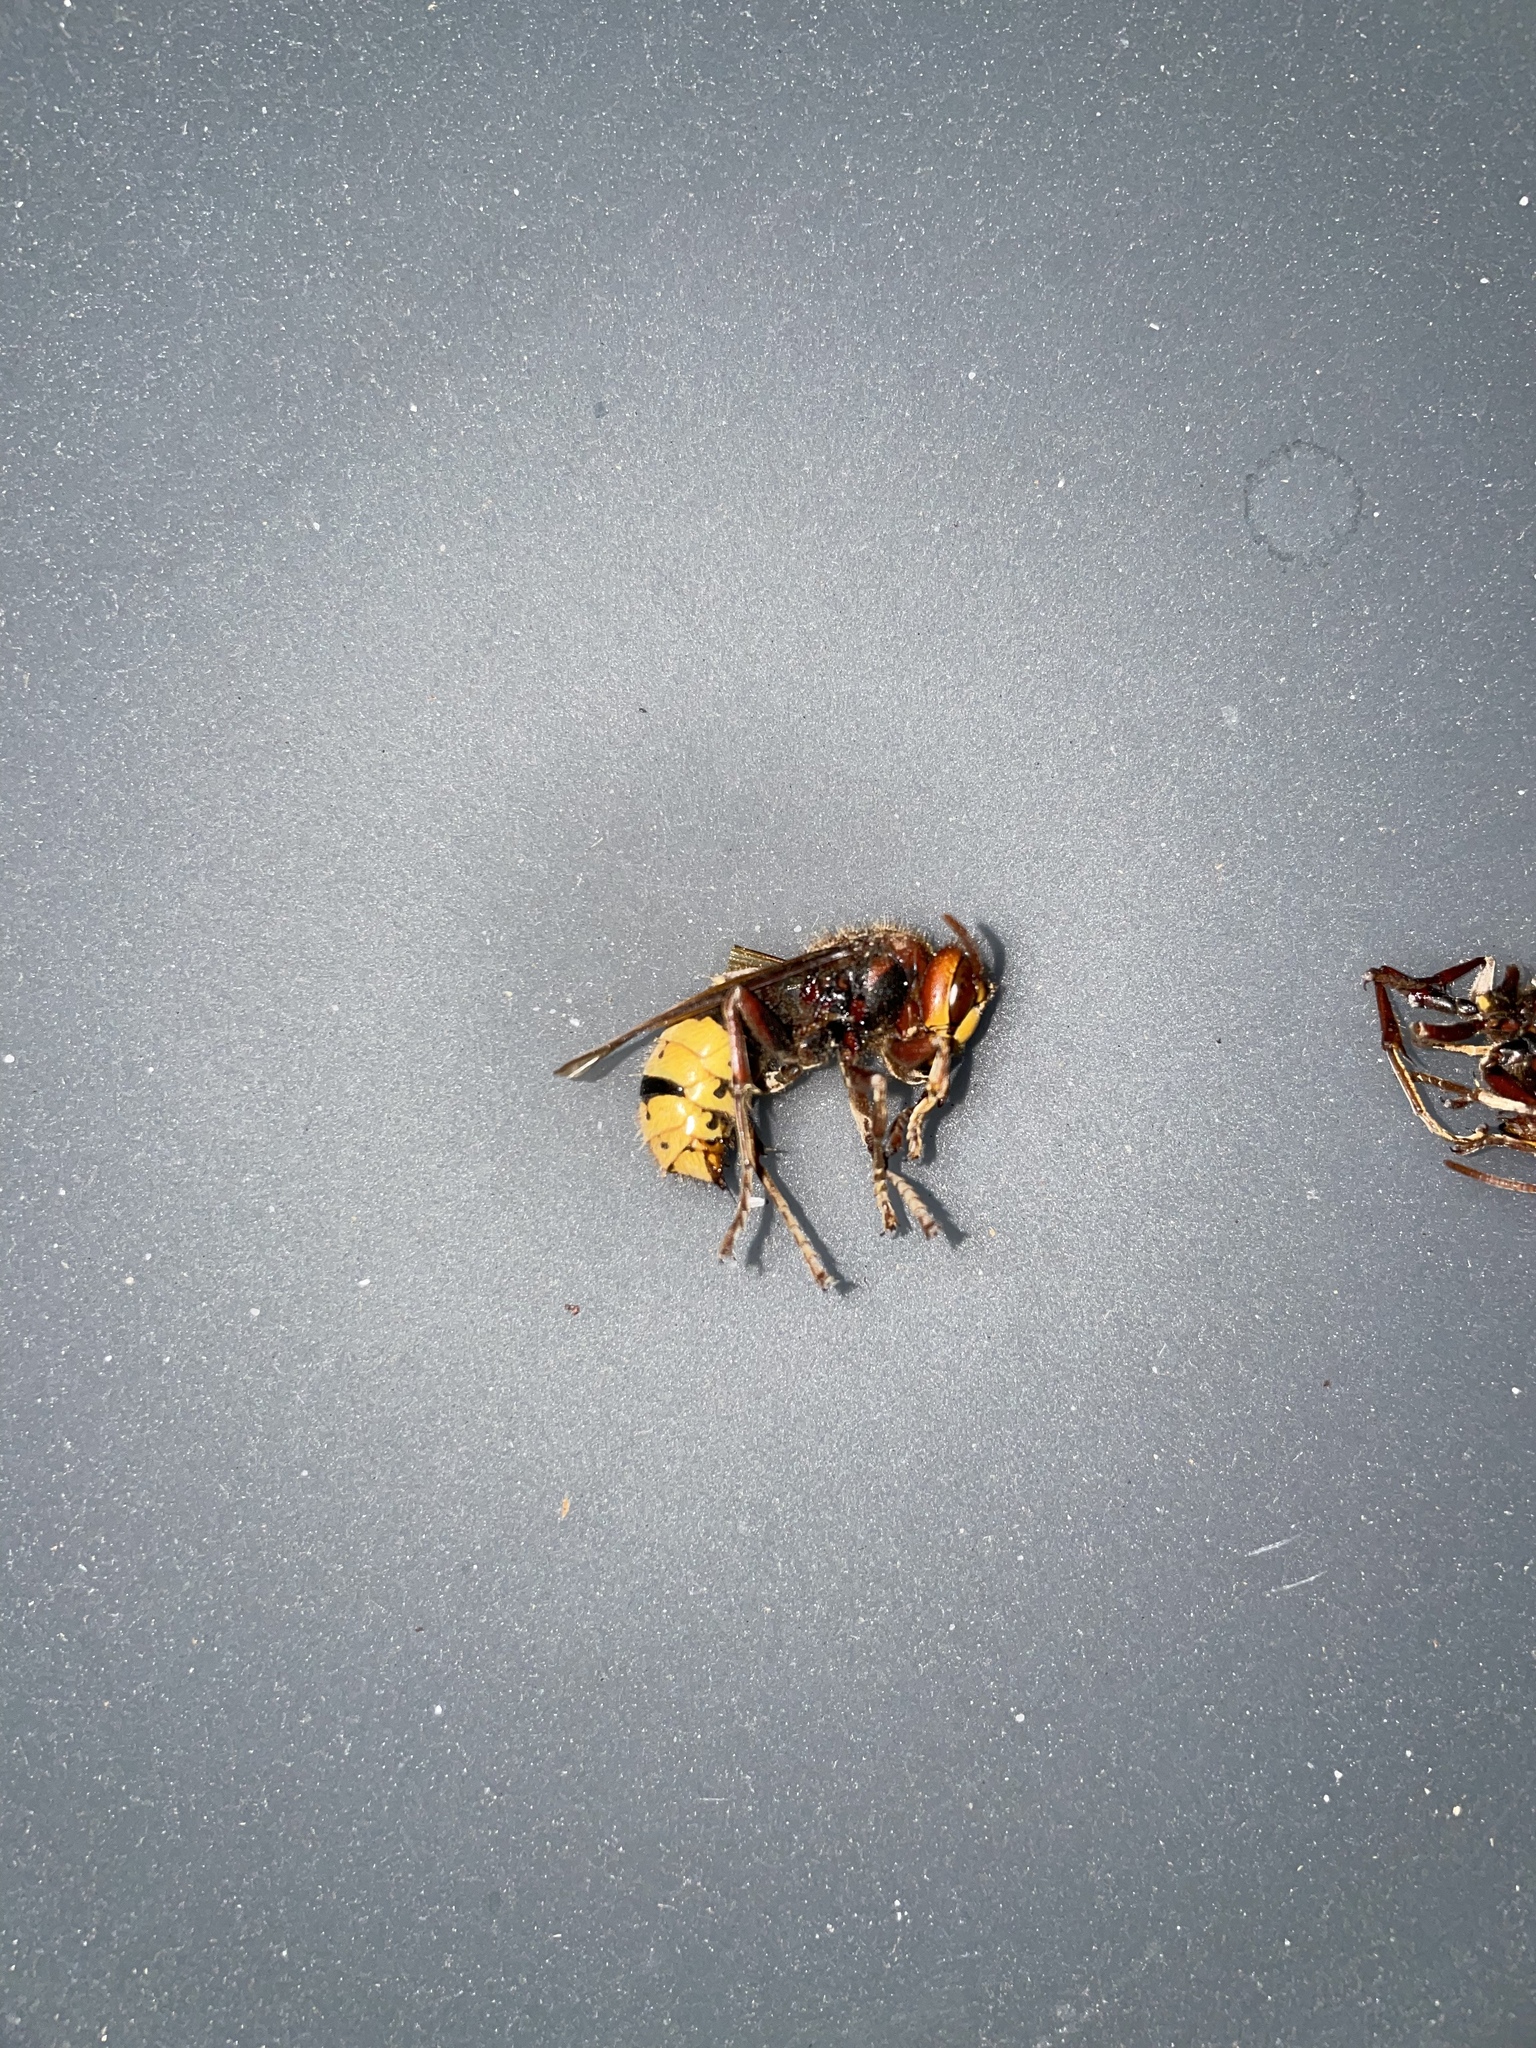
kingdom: Animalia
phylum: Arthropoda
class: Insecta
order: Hymenoptera
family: Vespidae
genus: Vespa
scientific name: Vespa crabro
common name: Hornet
